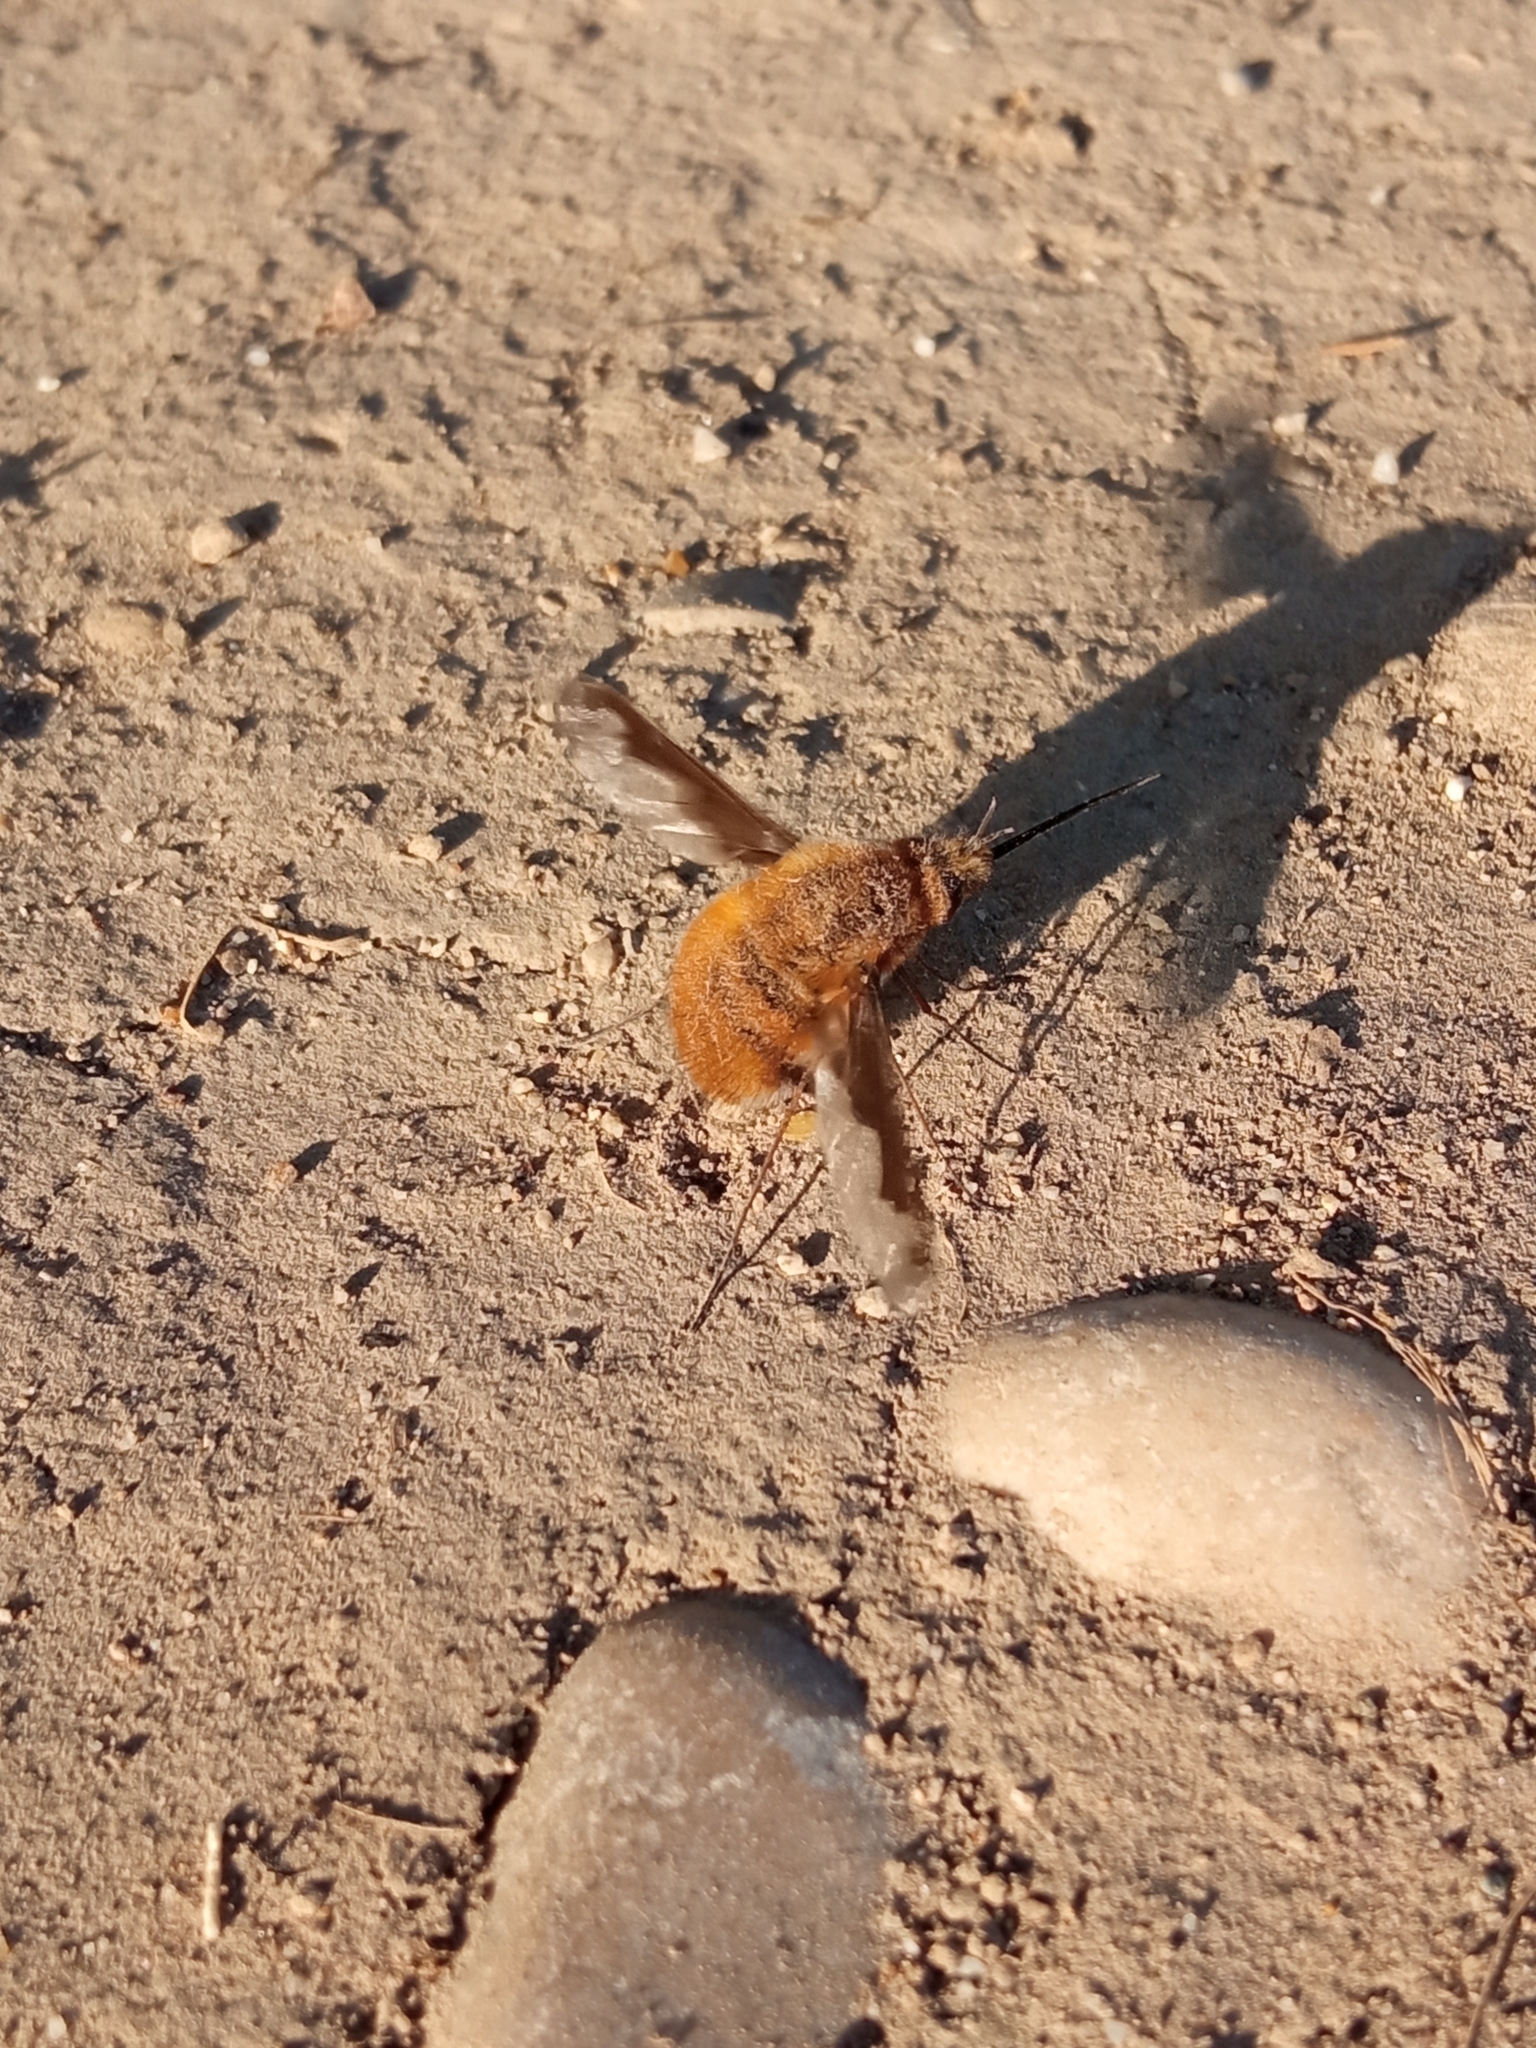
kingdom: Animalia
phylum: Arthropoda
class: Insecta
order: Diptera
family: Bombyliidae
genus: Bombylius
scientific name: Bombylius major
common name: Bee fly
